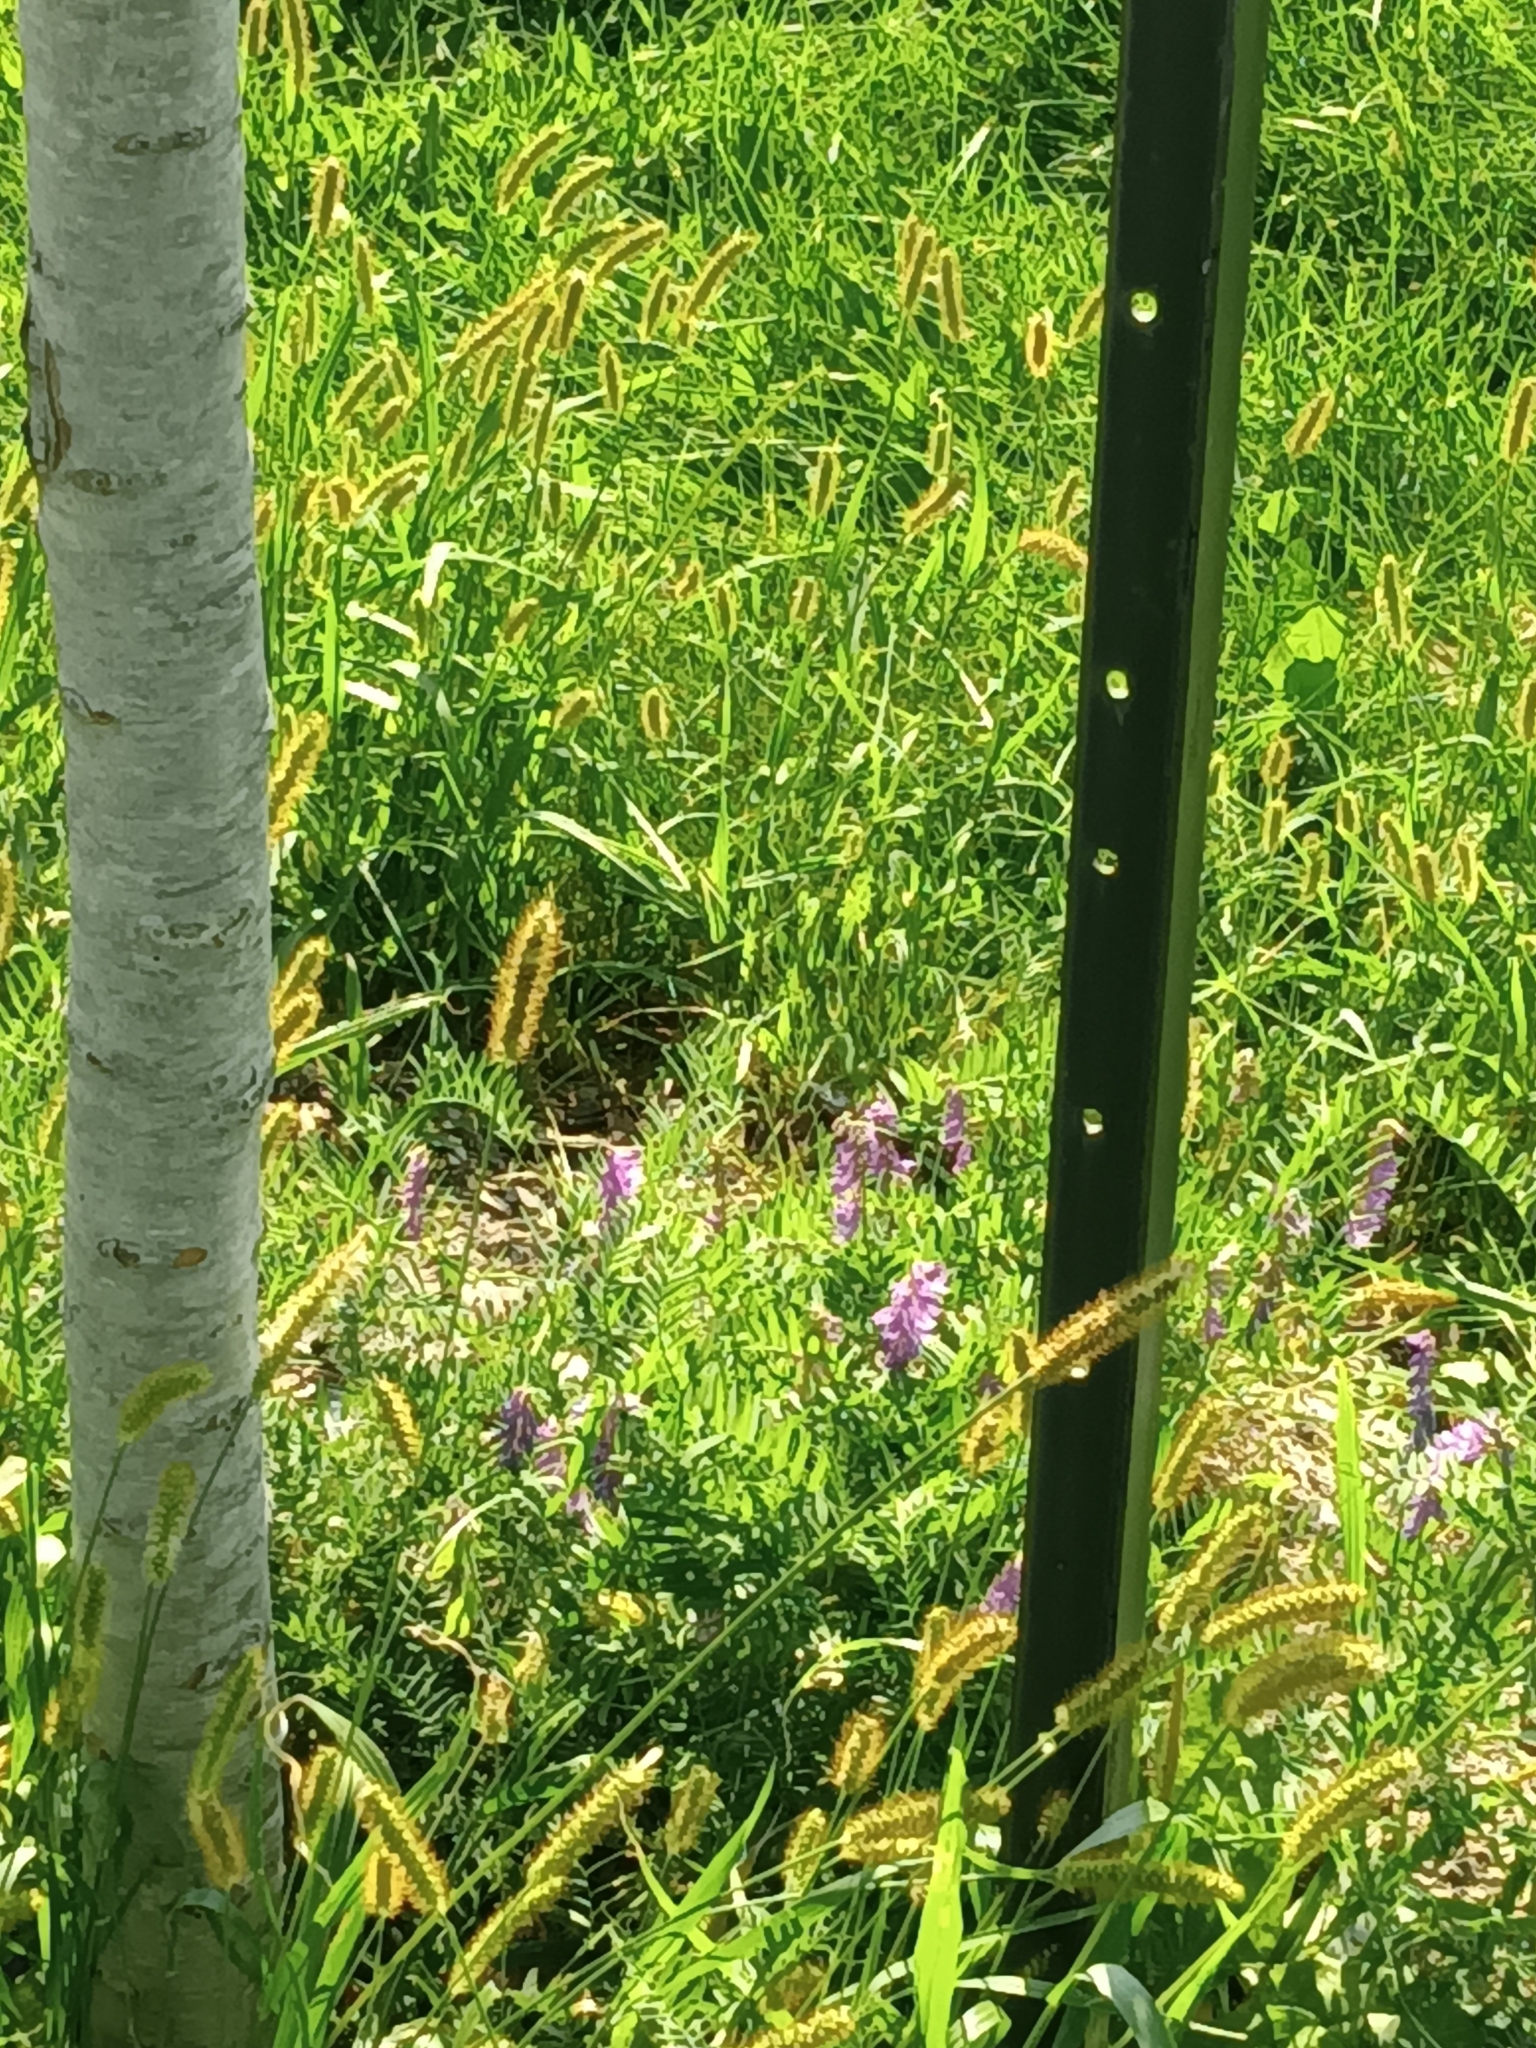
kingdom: Plantae
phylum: Tracheophyta
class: Magnoliopsida
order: Fabales
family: Fabaceae
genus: Vicia
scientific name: Vicia cracca
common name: Bird vetch
